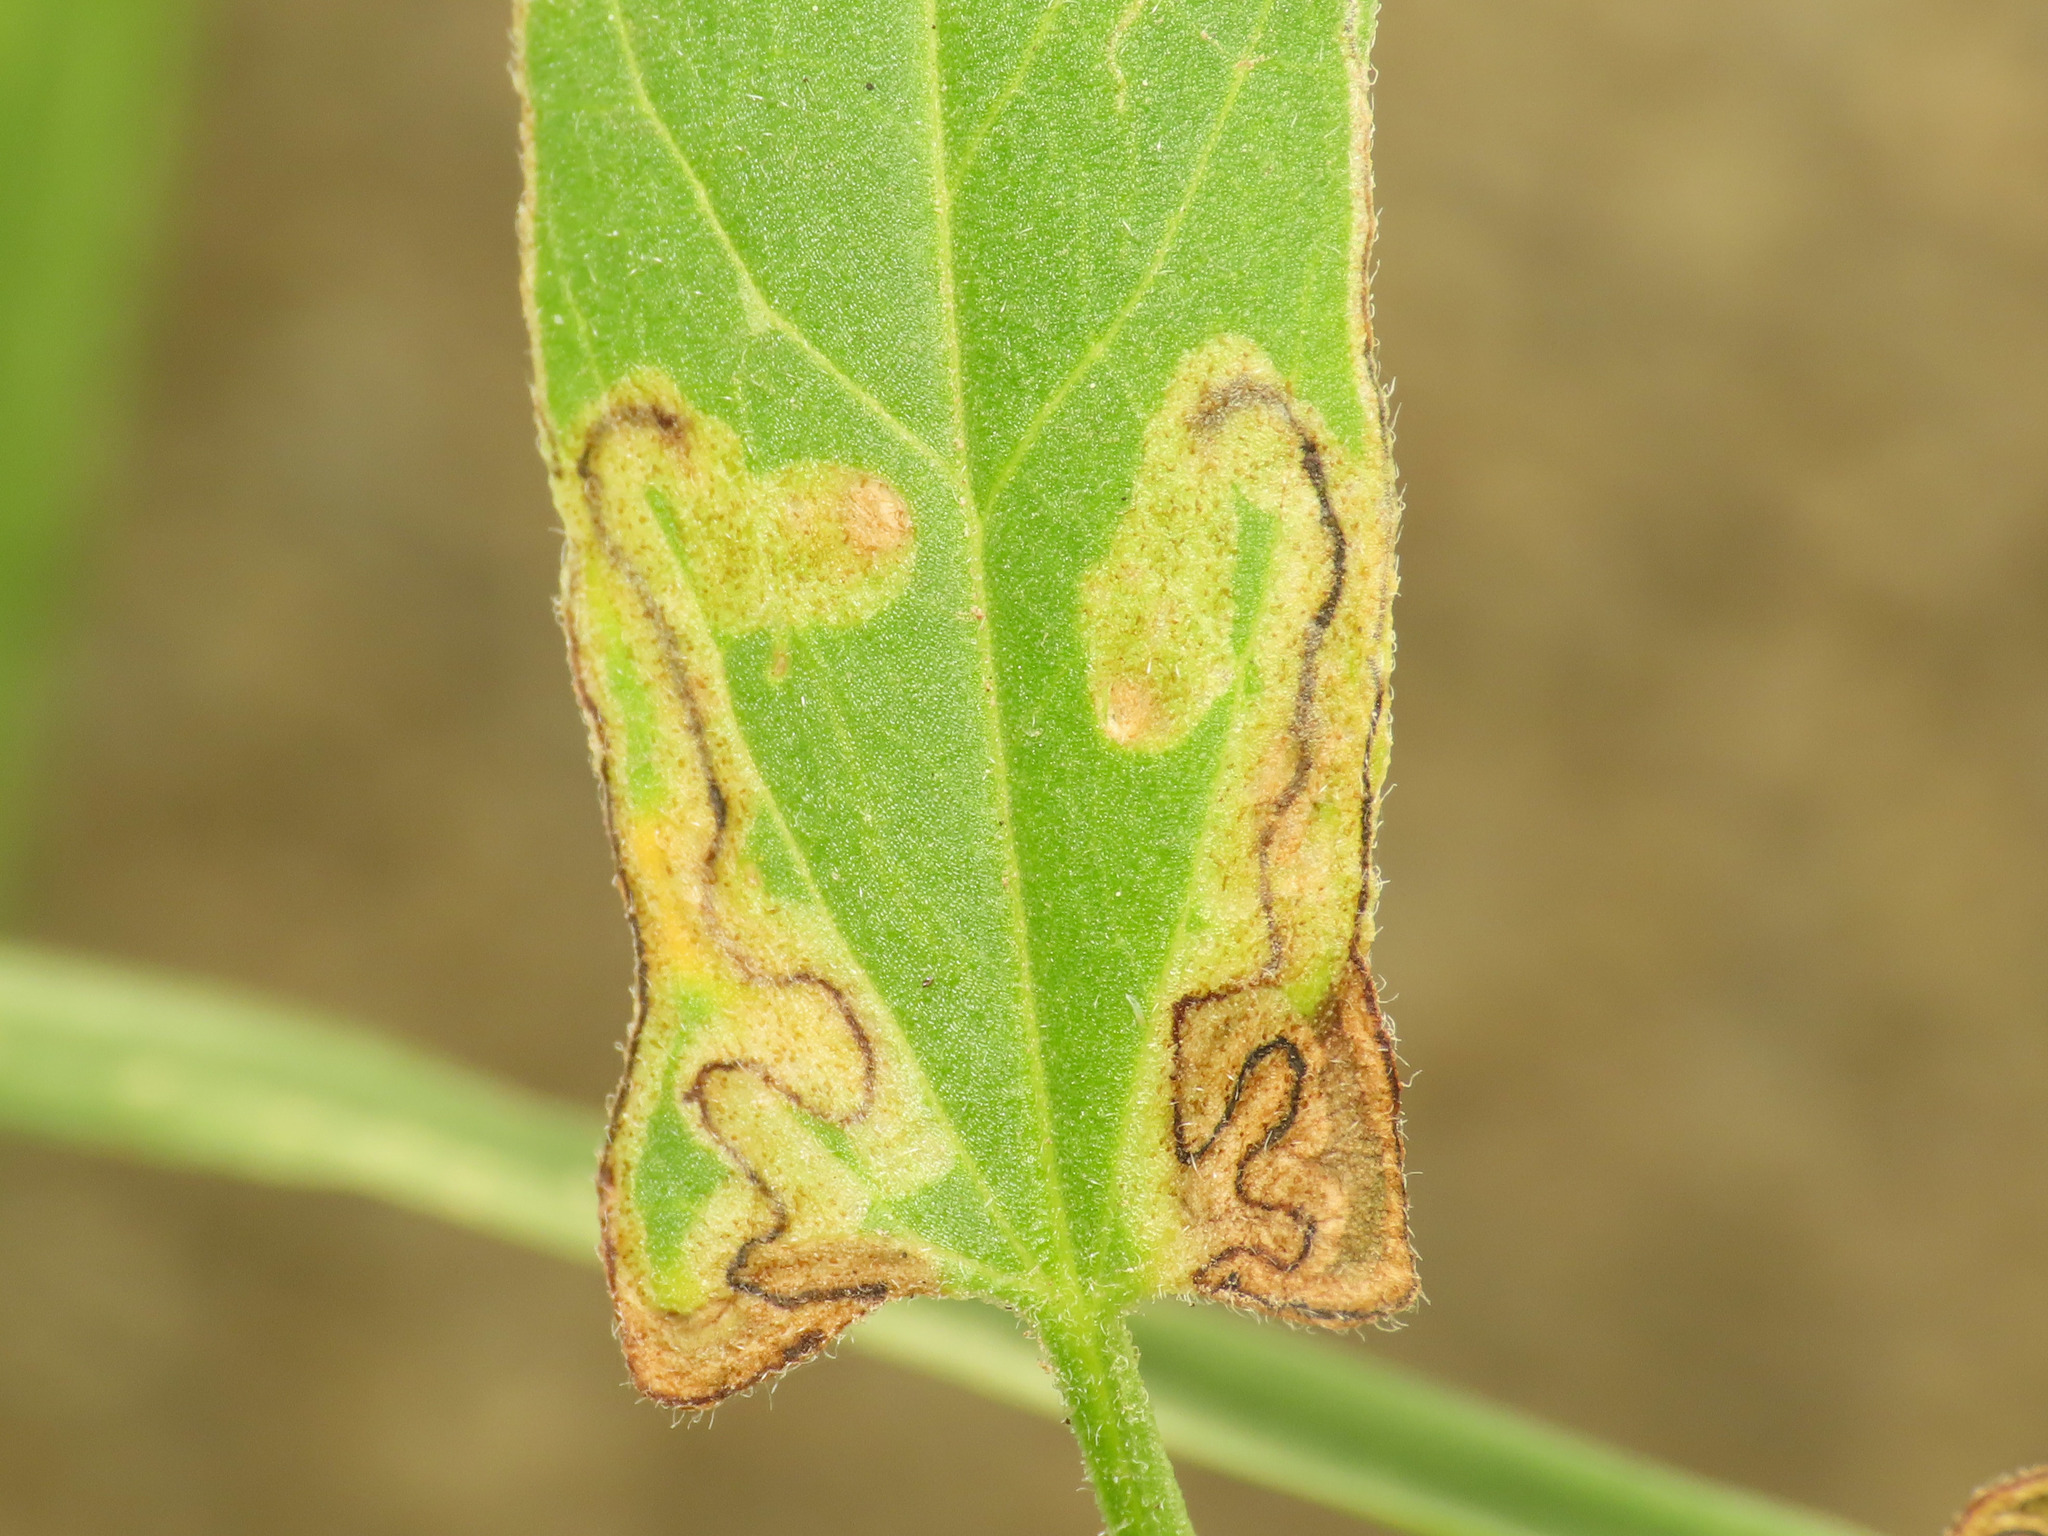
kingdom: Animalia
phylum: Arthropoda
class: Insecta
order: Lepidoptera
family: Nepticulidae
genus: Stigmella
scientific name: Stigmella freyella
